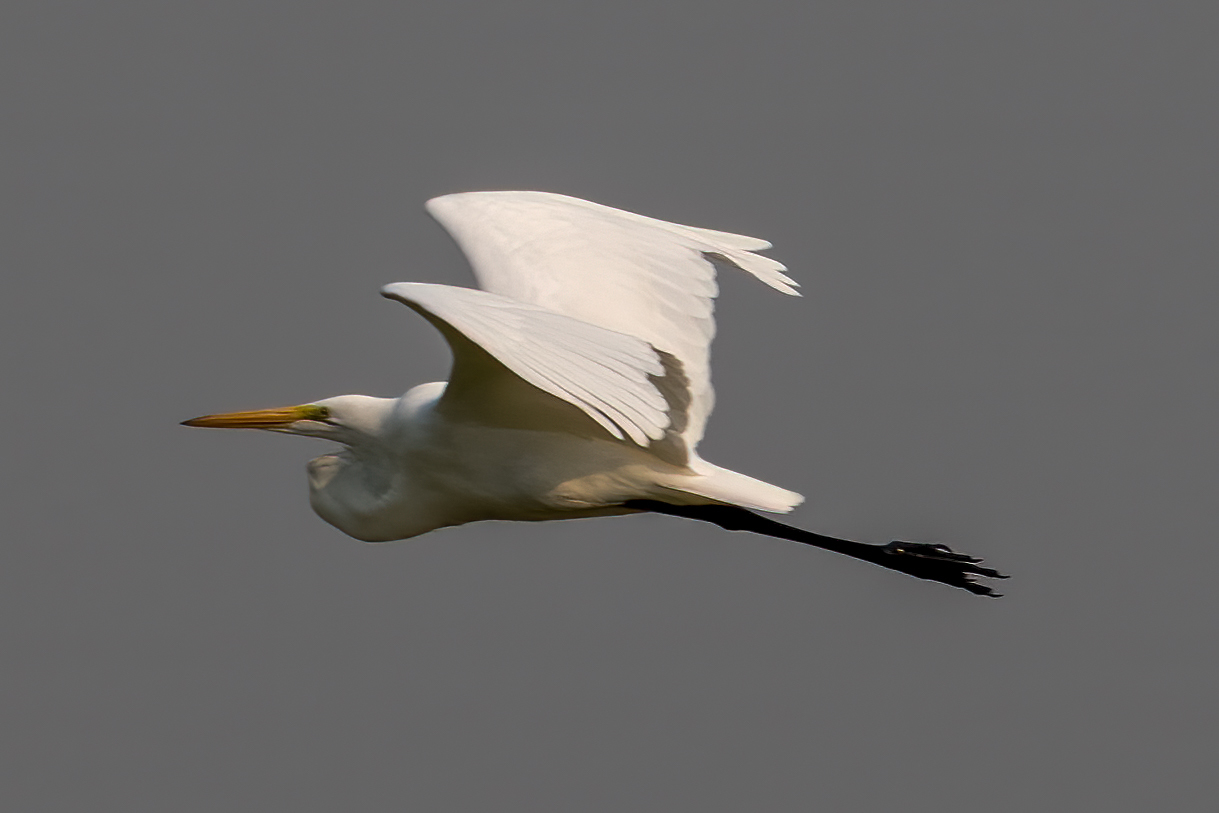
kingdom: Animalia
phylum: Chordata
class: Aves
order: Pelecaniformes
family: Ardeidae
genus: Ardea
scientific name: Ardea alba
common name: Great egret
